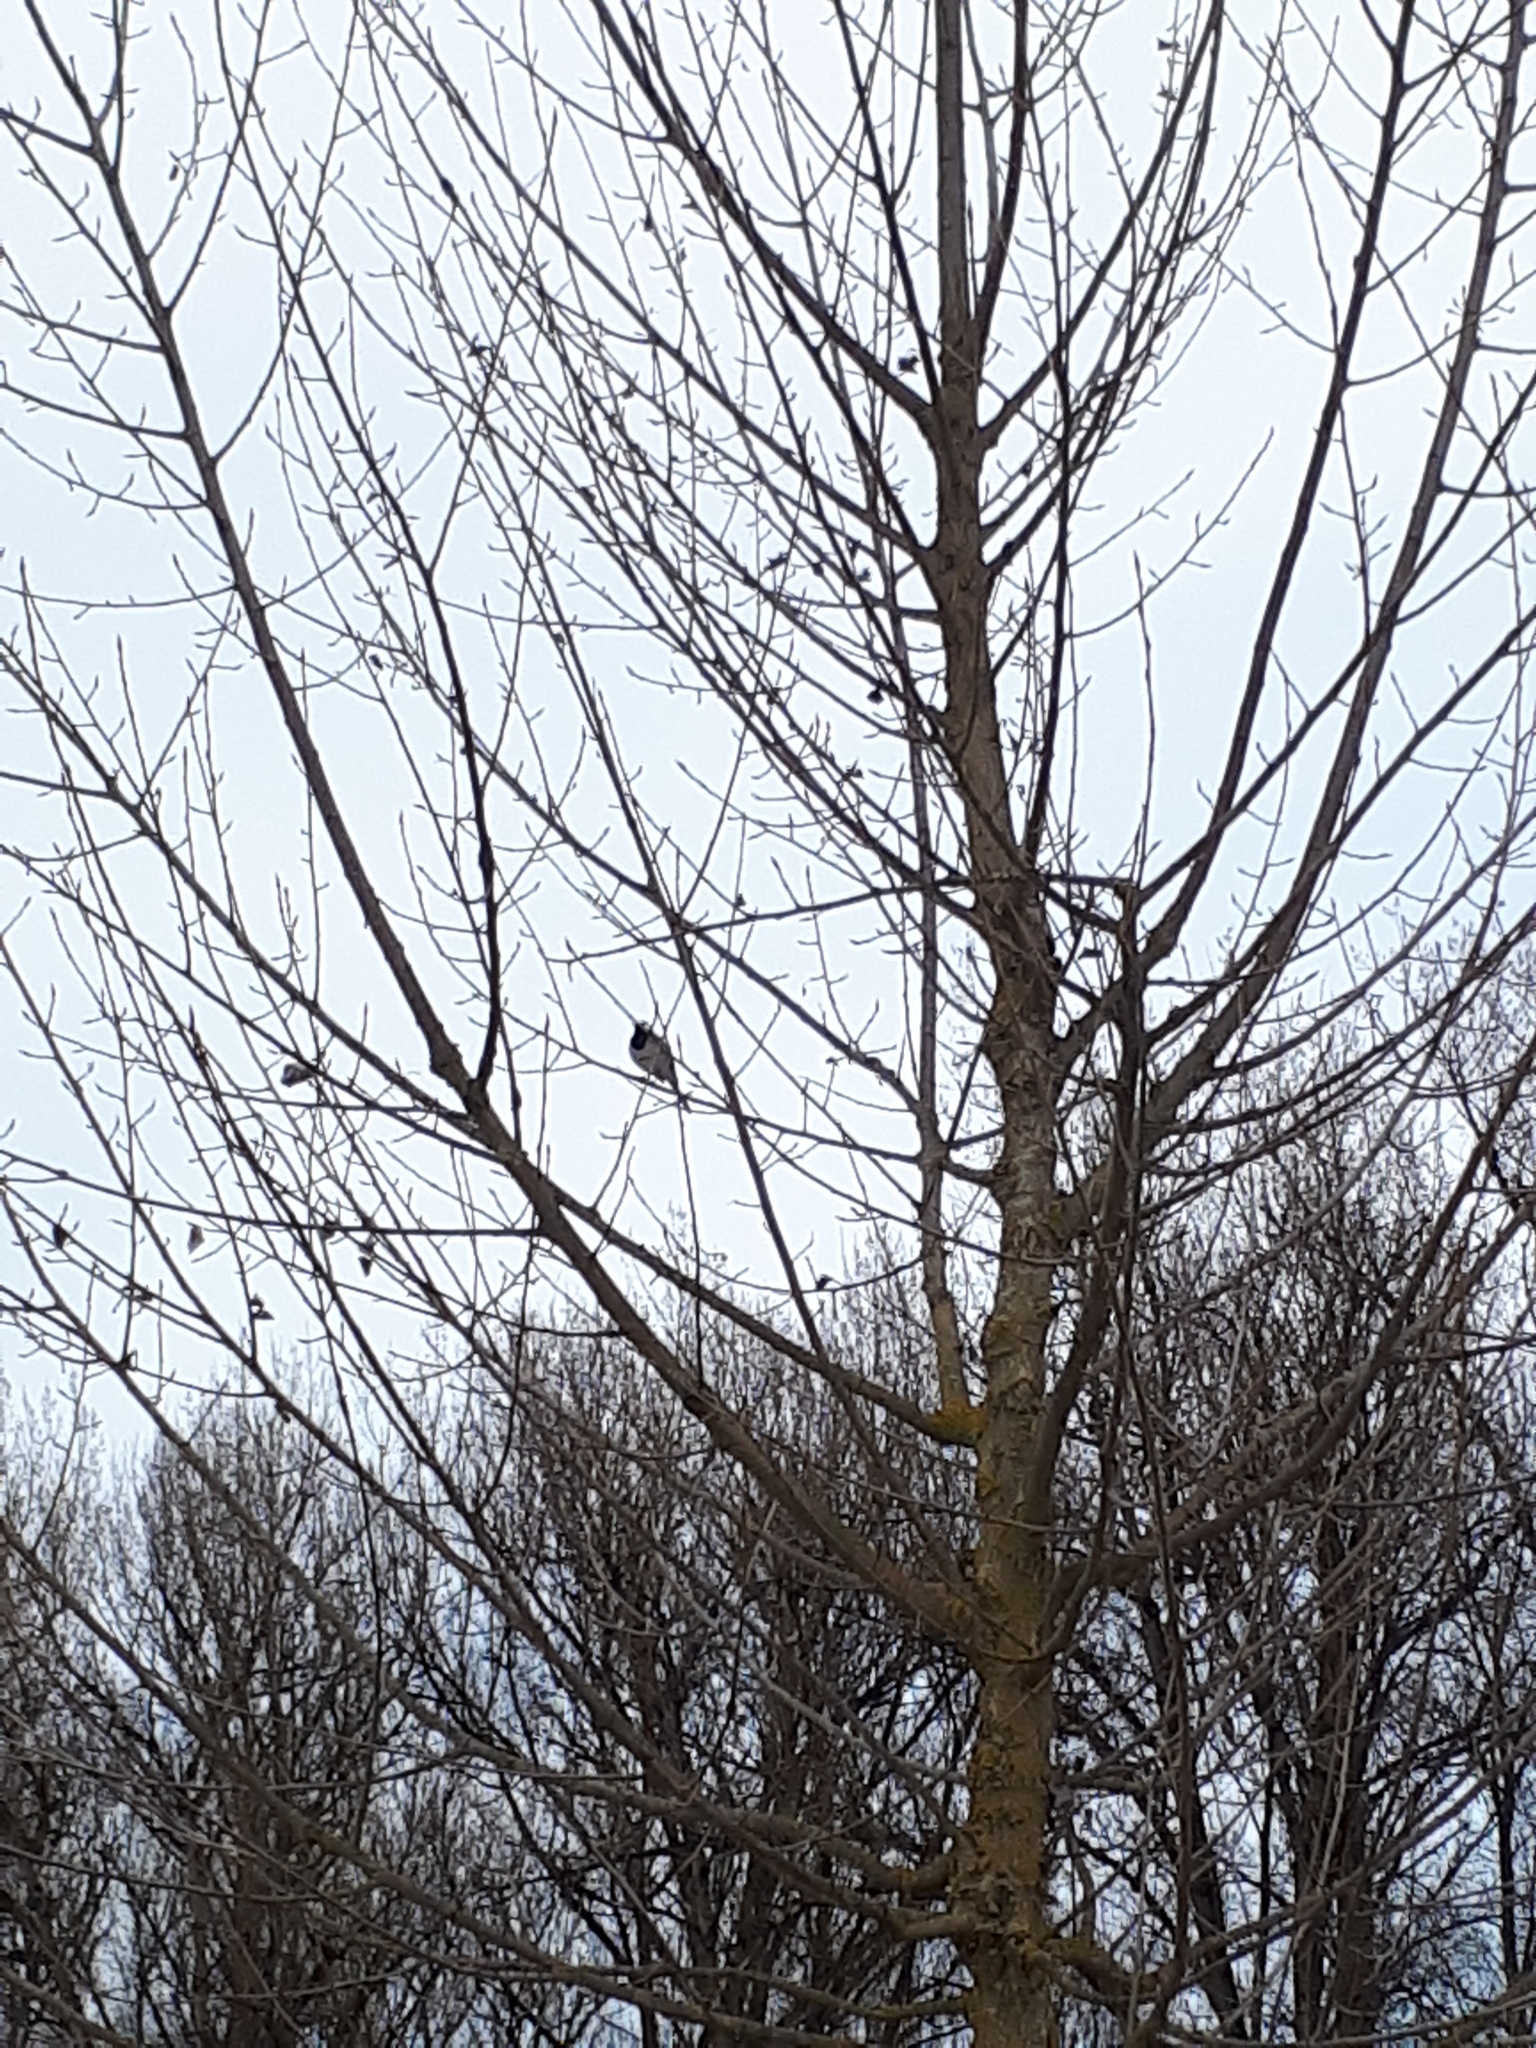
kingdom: Animalia
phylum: Chordata
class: Aves
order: Passeriformes
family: Motacillidae
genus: Motacilla
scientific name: Motacilla alba
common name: White wagtail
